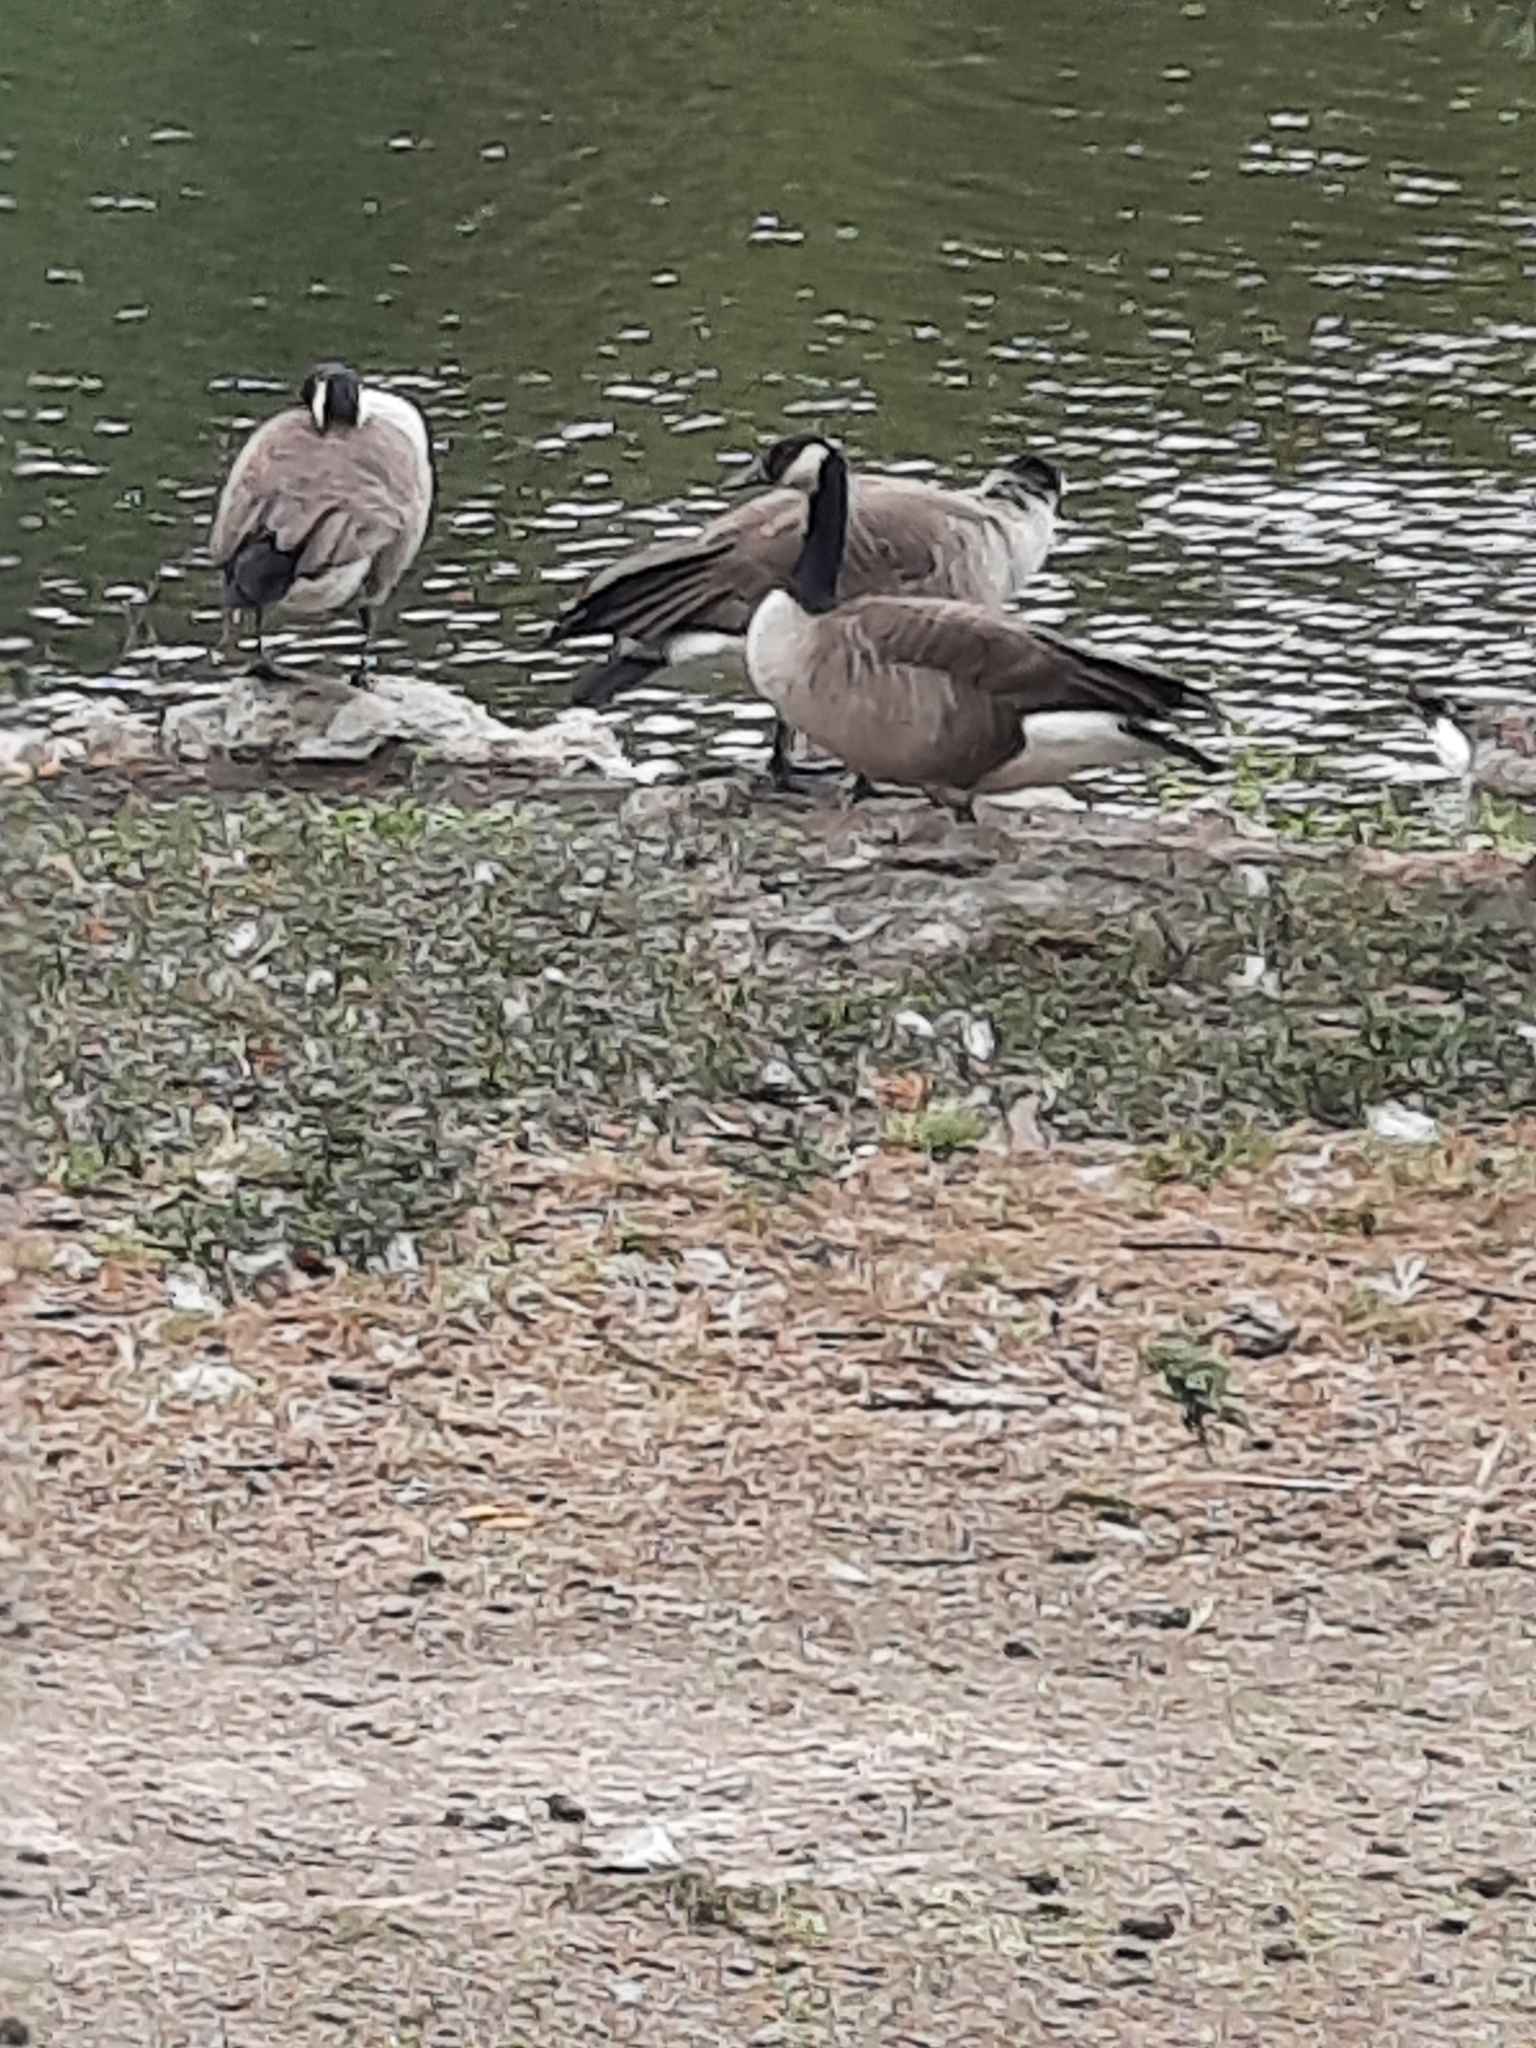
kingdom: Animalia
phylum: Chordata
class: Aves
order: Anseriformes
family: Anatidae
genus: Branta
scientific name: Branta canadensis
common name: Canada goose
